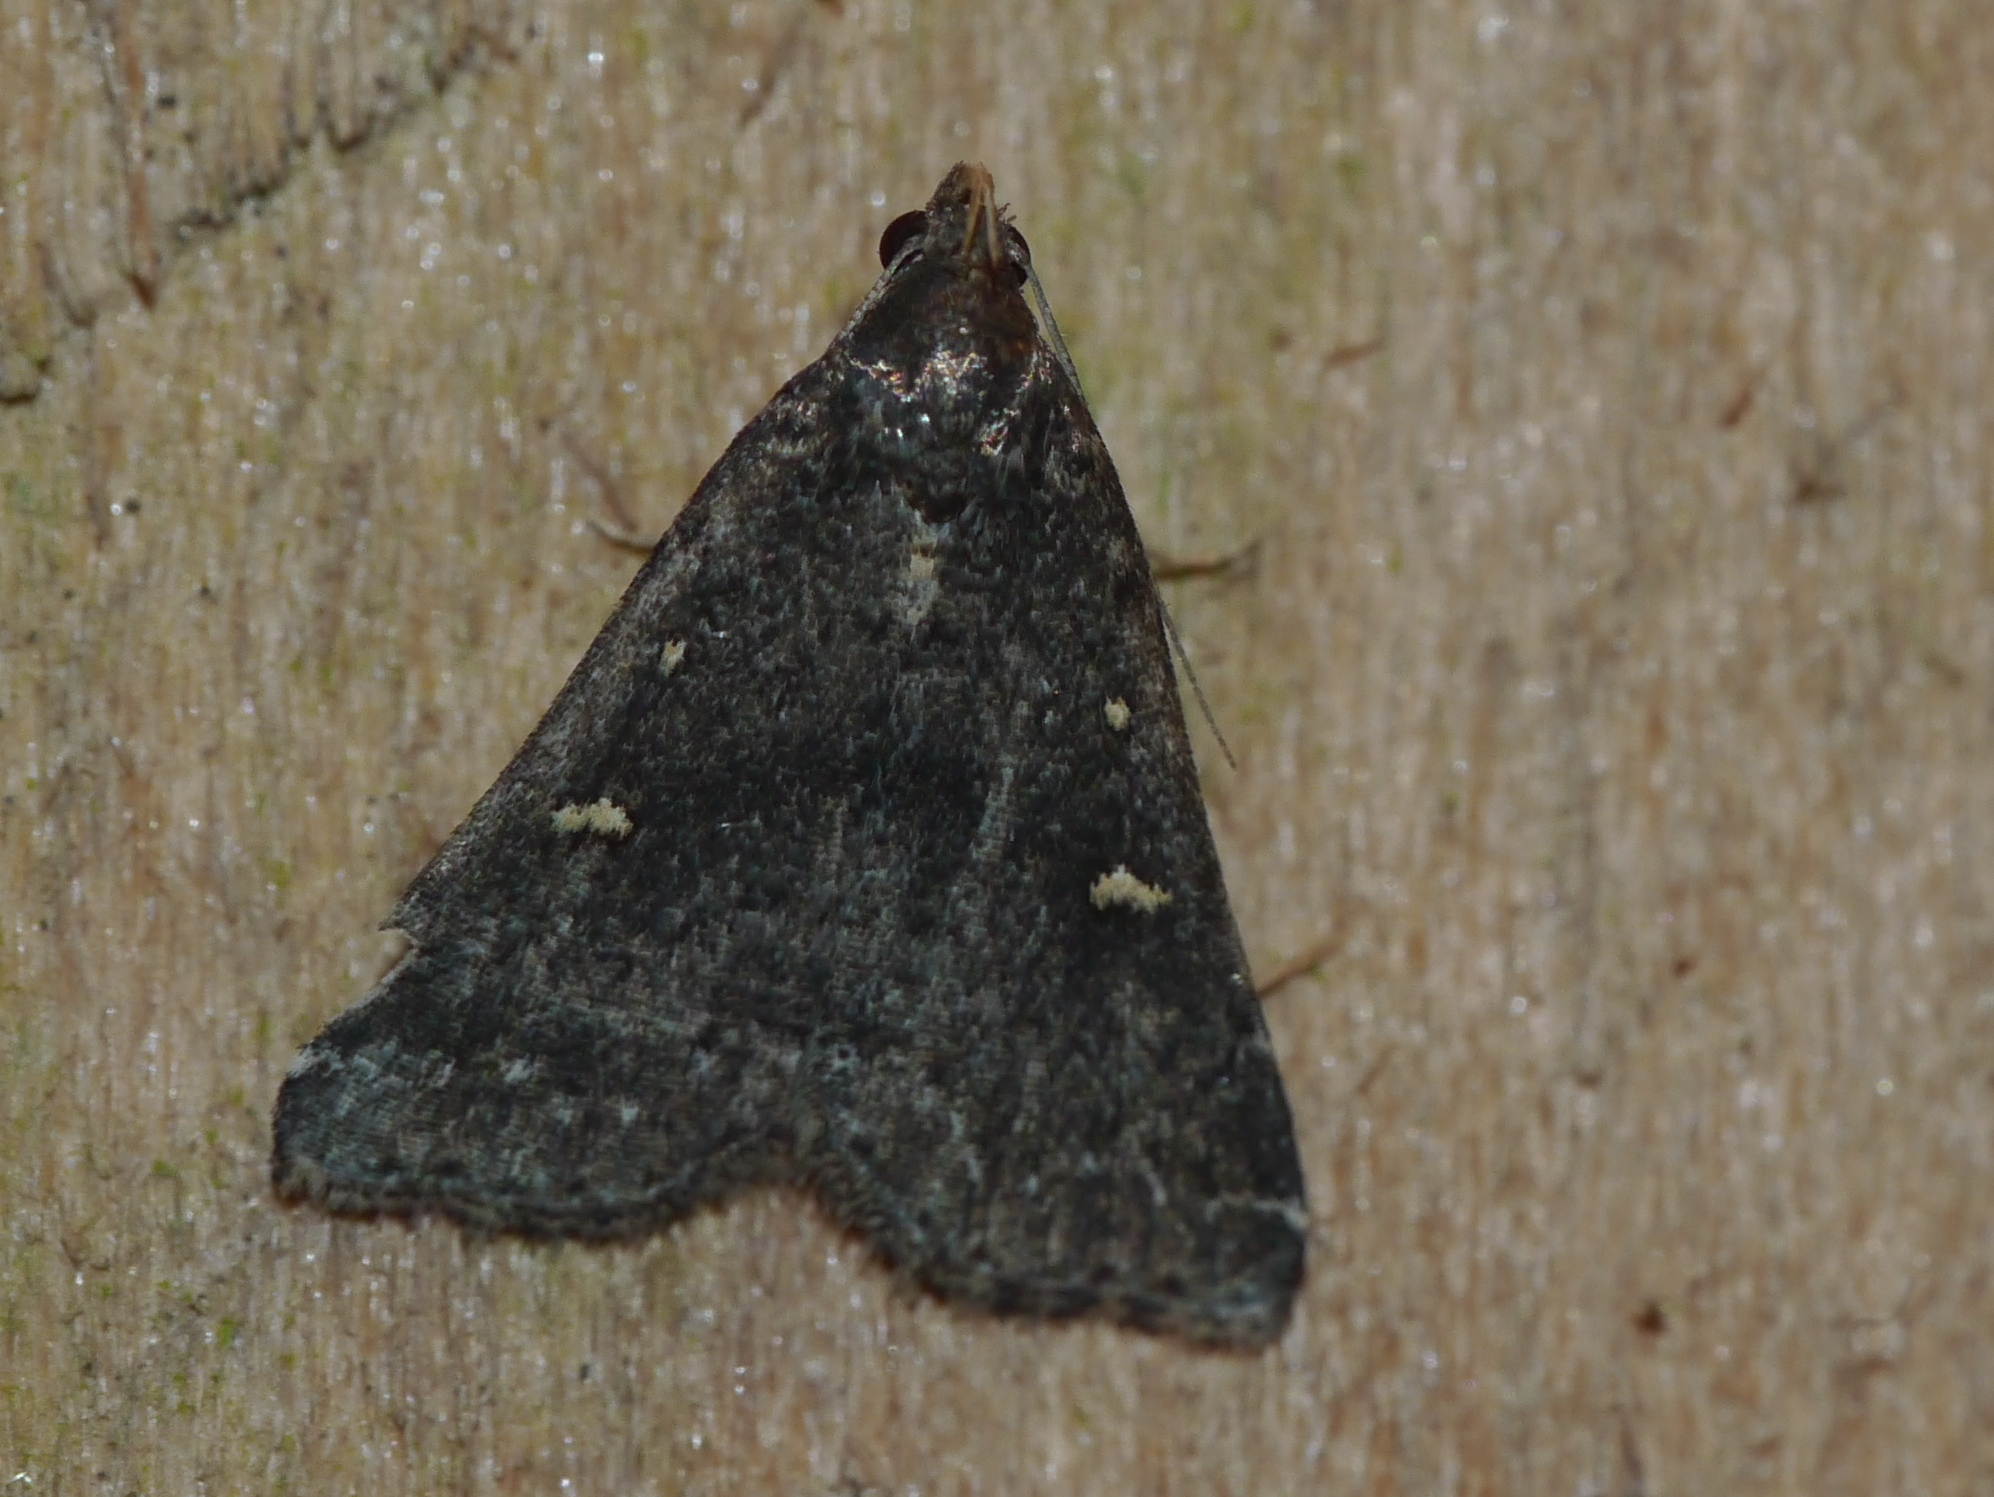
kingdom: Animalia
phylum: Arthropoda
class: Insecta
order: Lepidoptera
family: Erebidae
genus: Tetanolita
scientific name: Tetanolita mynesalis
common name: Smoky tetanolita moth
